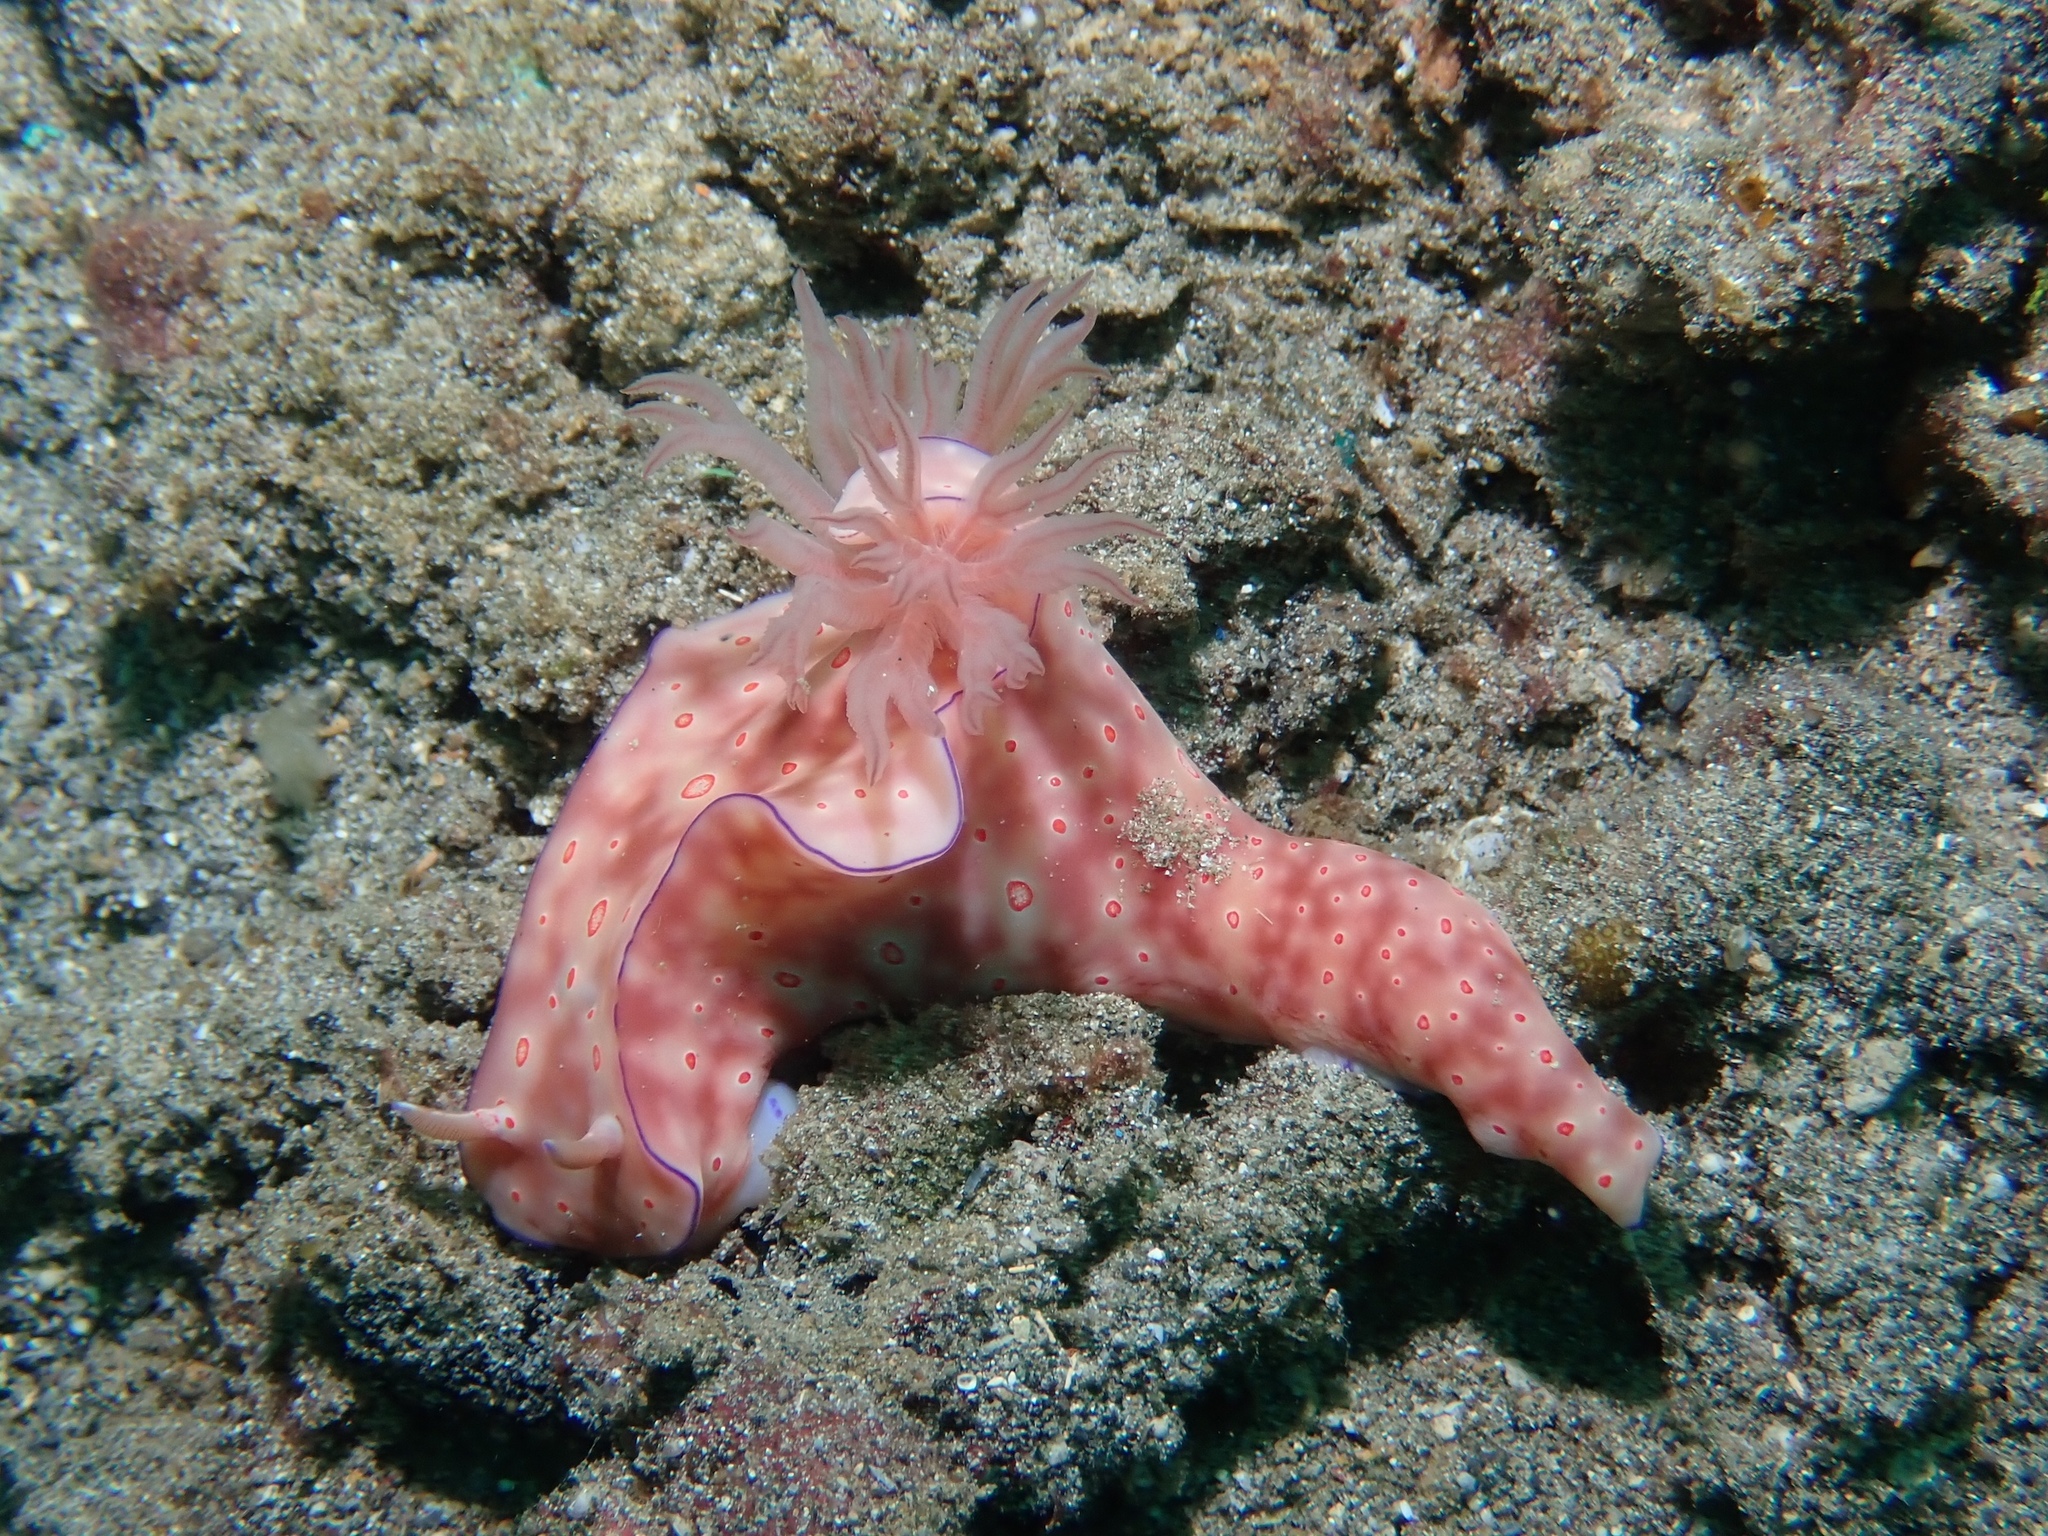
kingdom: Animalia
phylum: Mollusca
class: Gastropoda
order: Nudibranchia
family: Chromodorididae
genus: Ceratosoma
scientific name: Ceratosoma trilobatum
